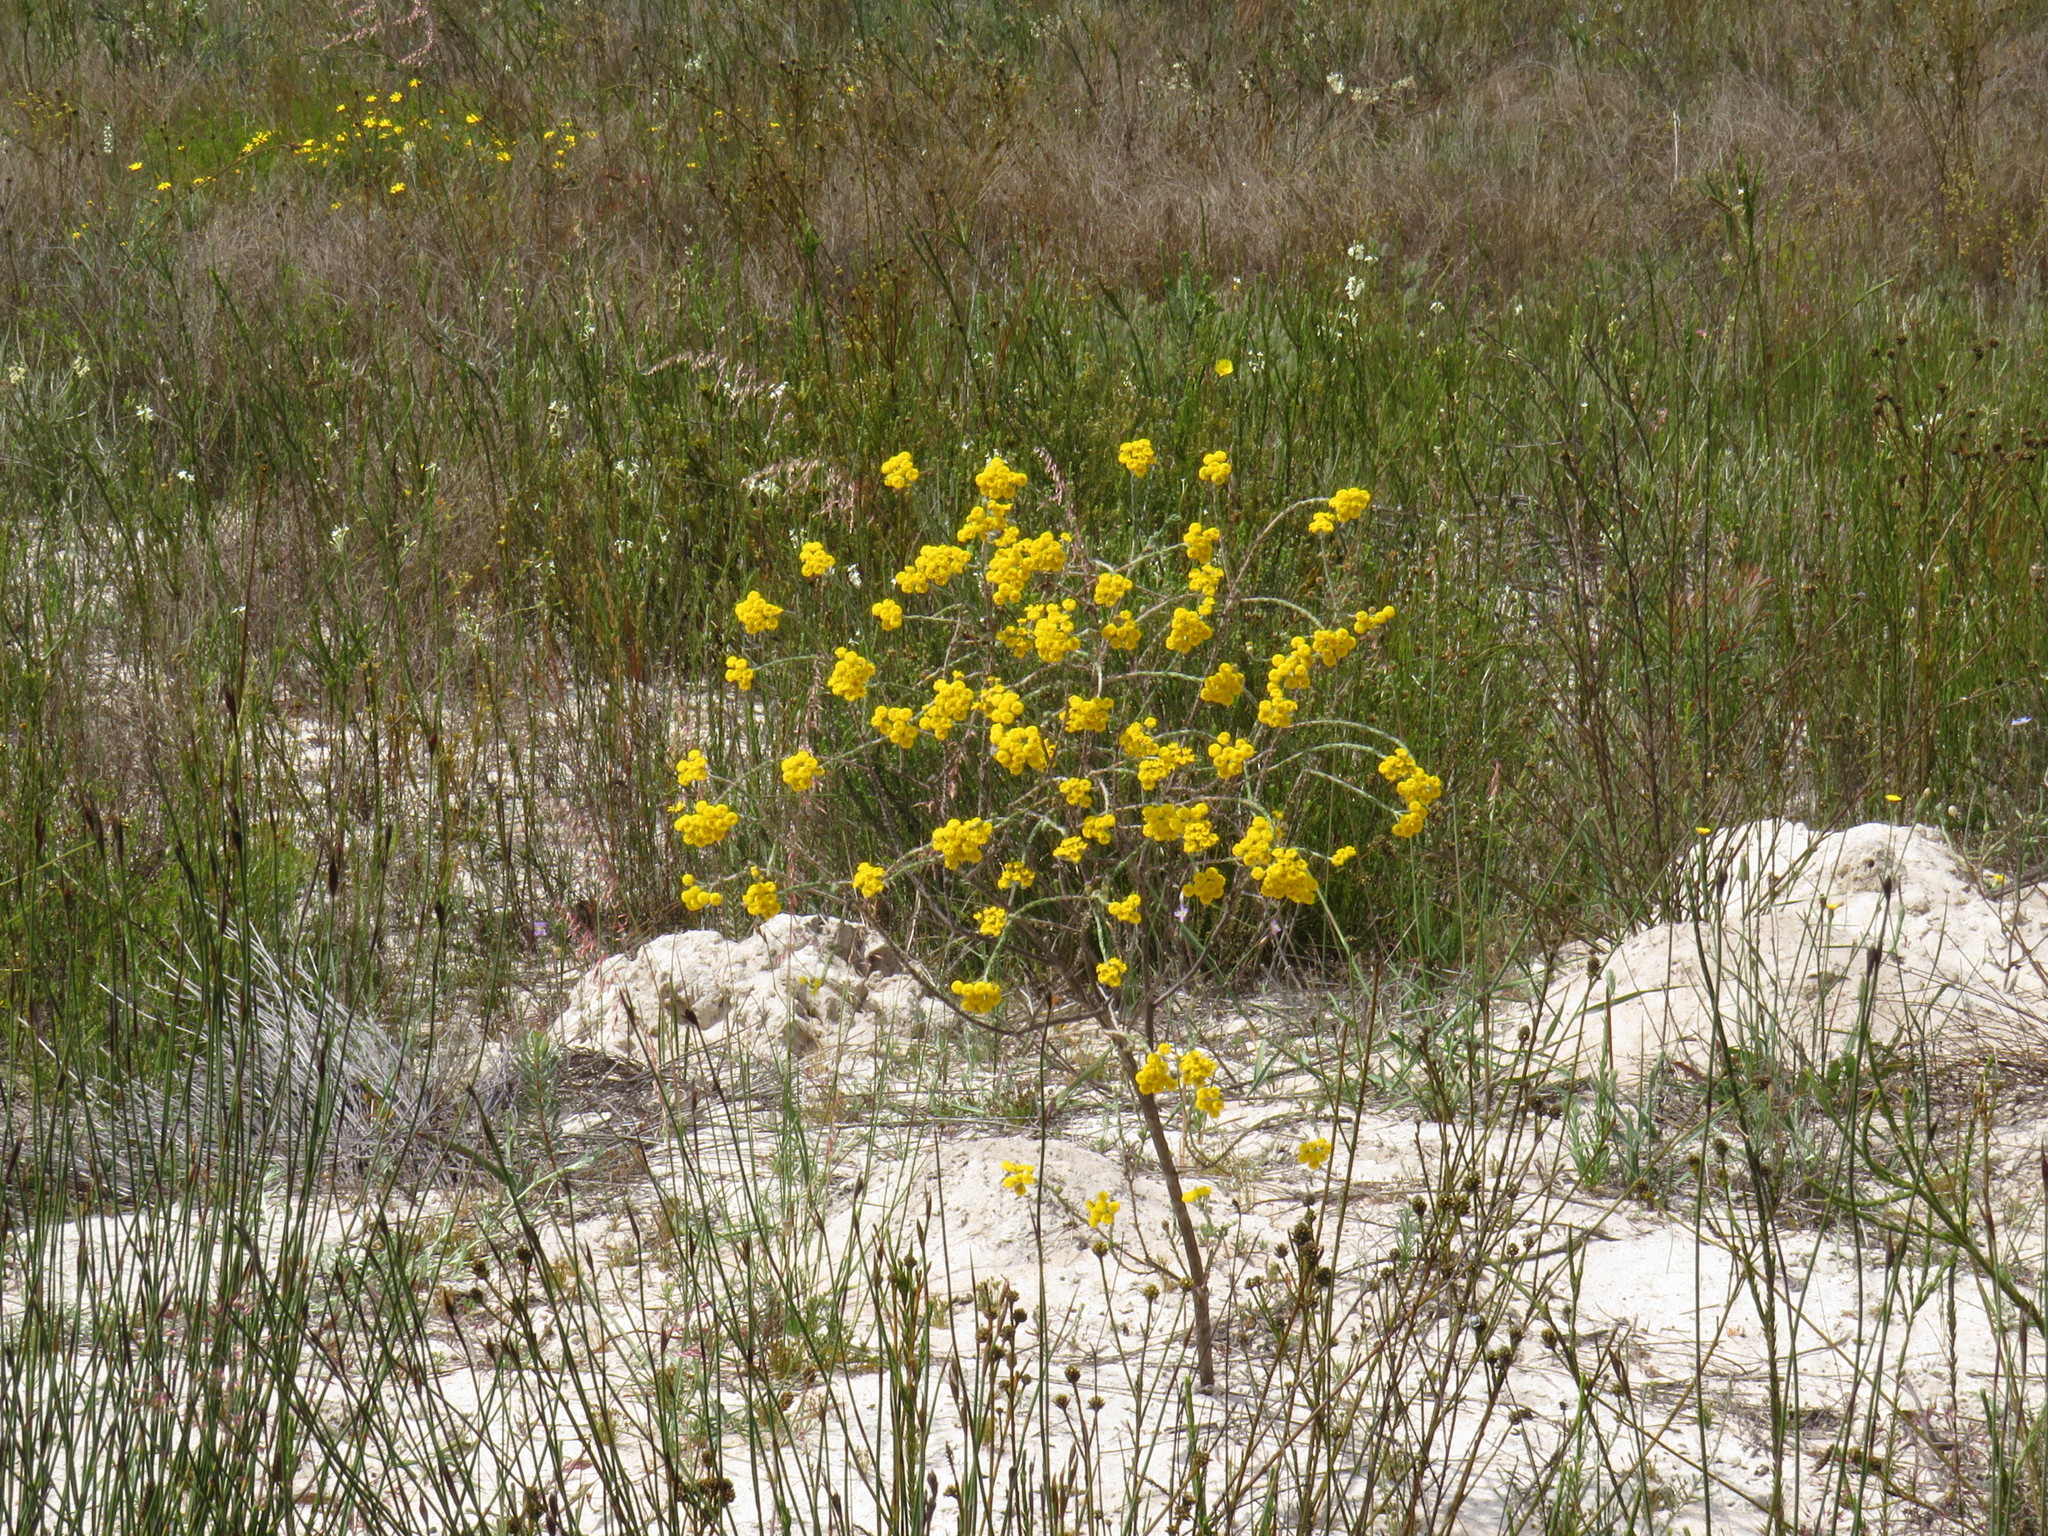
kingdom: Plantae
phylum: Tracheophyta
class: Magnoliopsida
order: Asterales
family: Asteraceae
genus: Athanasia
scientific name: Athanasia rugulosa
